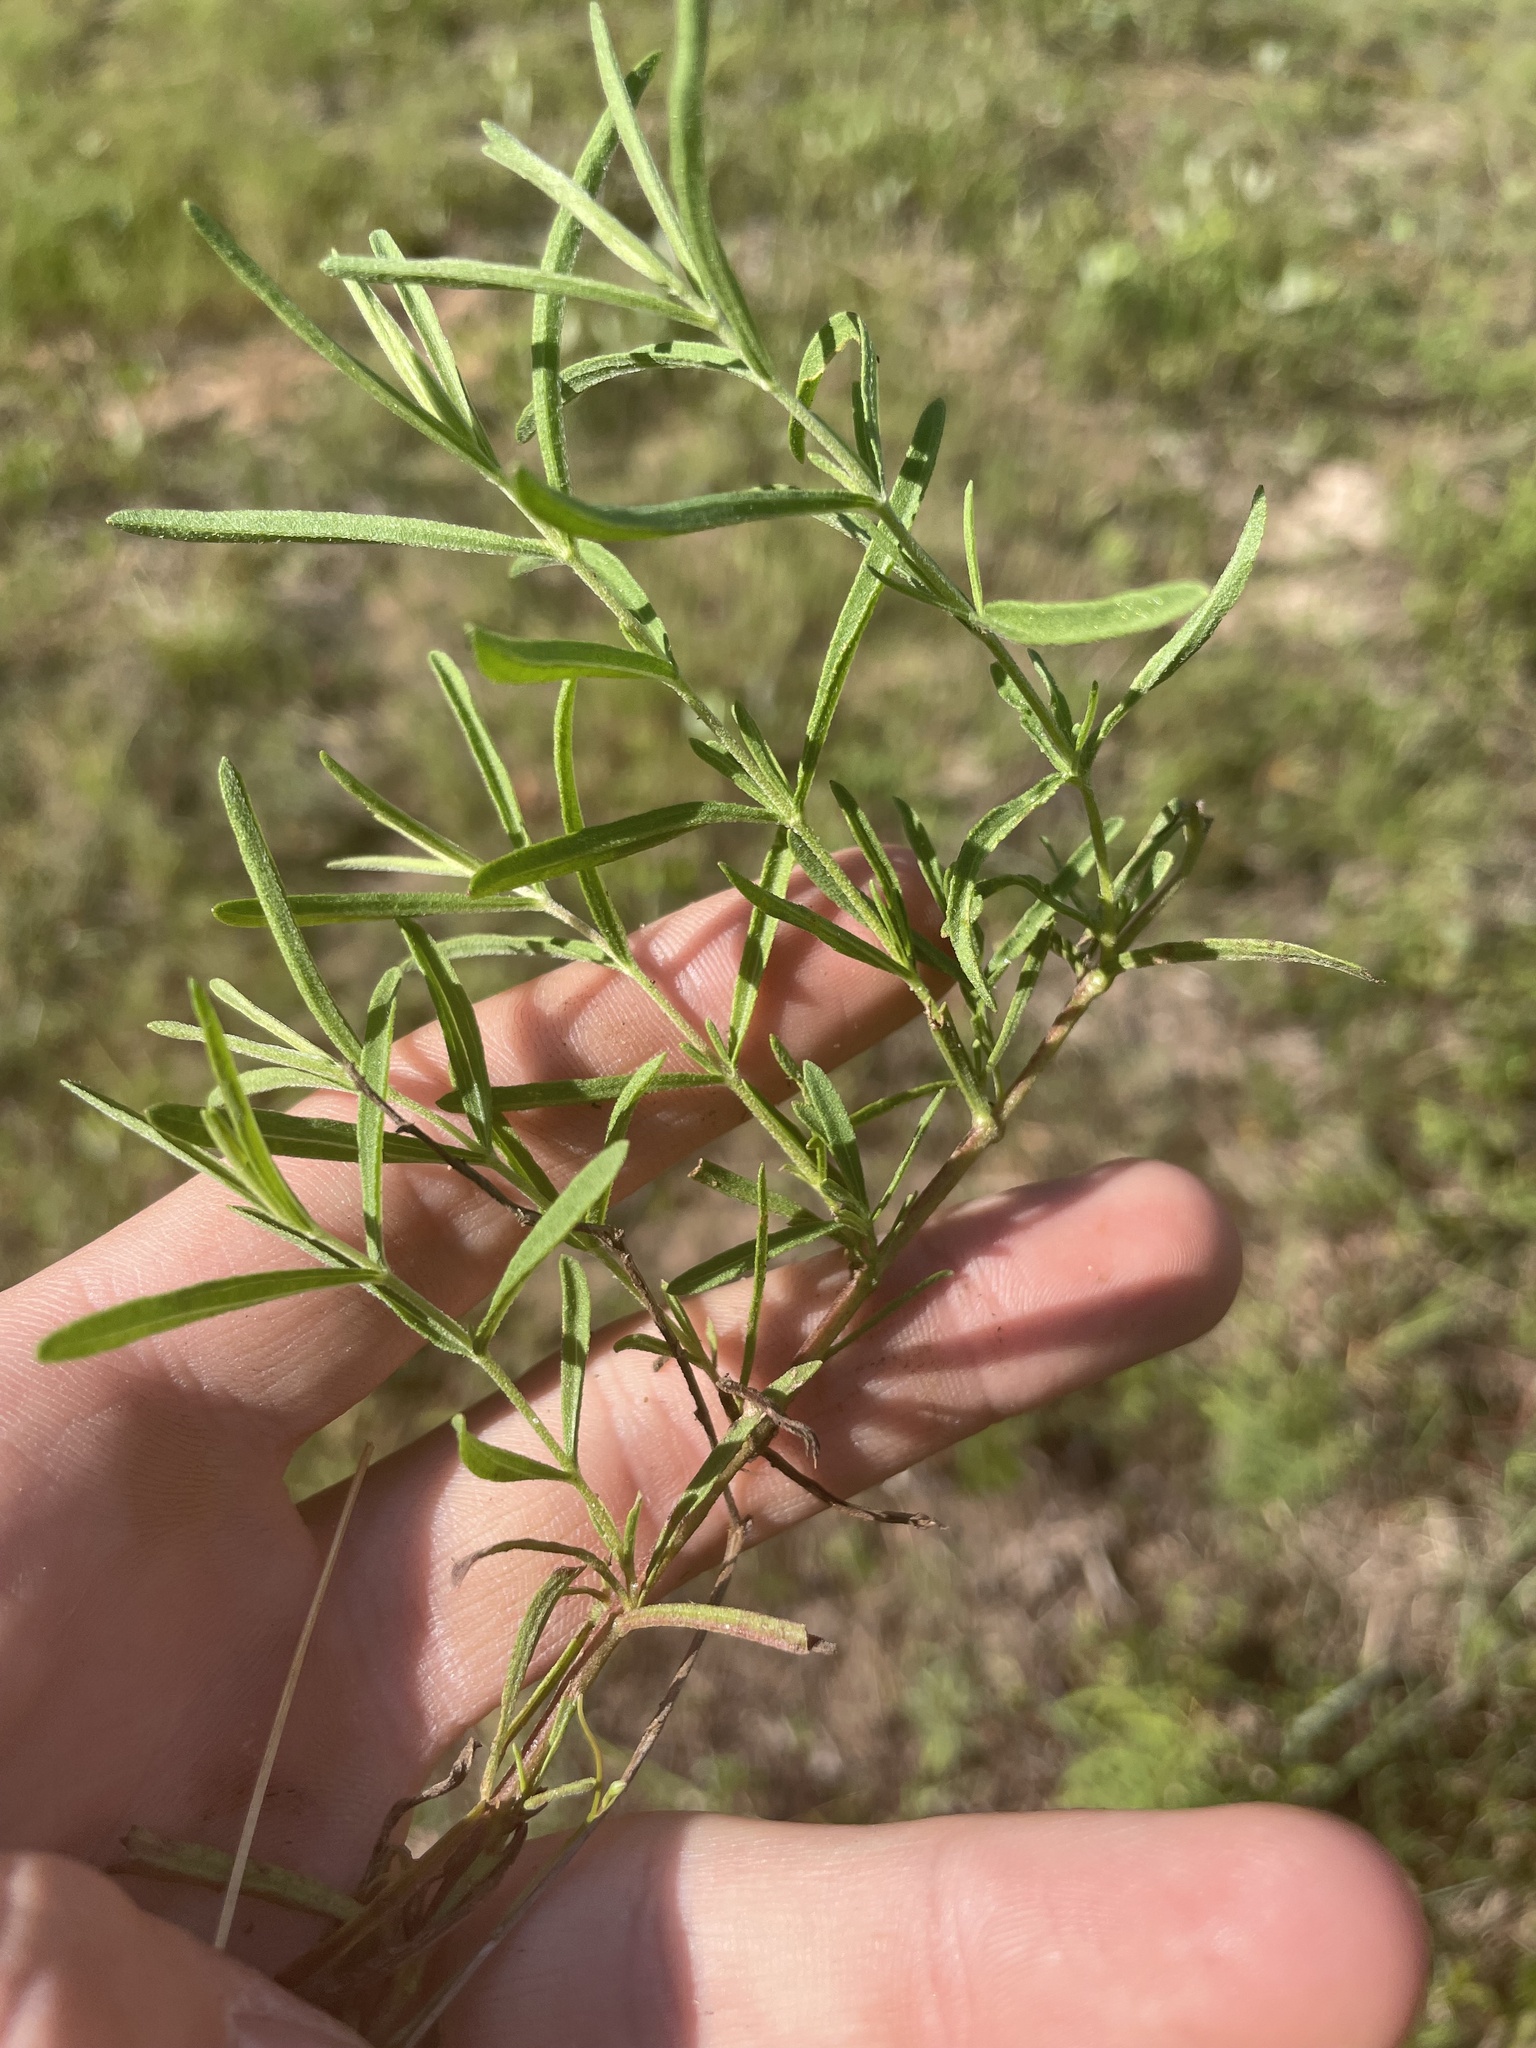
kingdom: Plantae
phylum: Tracheophyta
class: Magnoliopsida
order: Asterales
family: Asteraceae
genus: Eupatorium
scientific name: Eupatorium linearifolium
